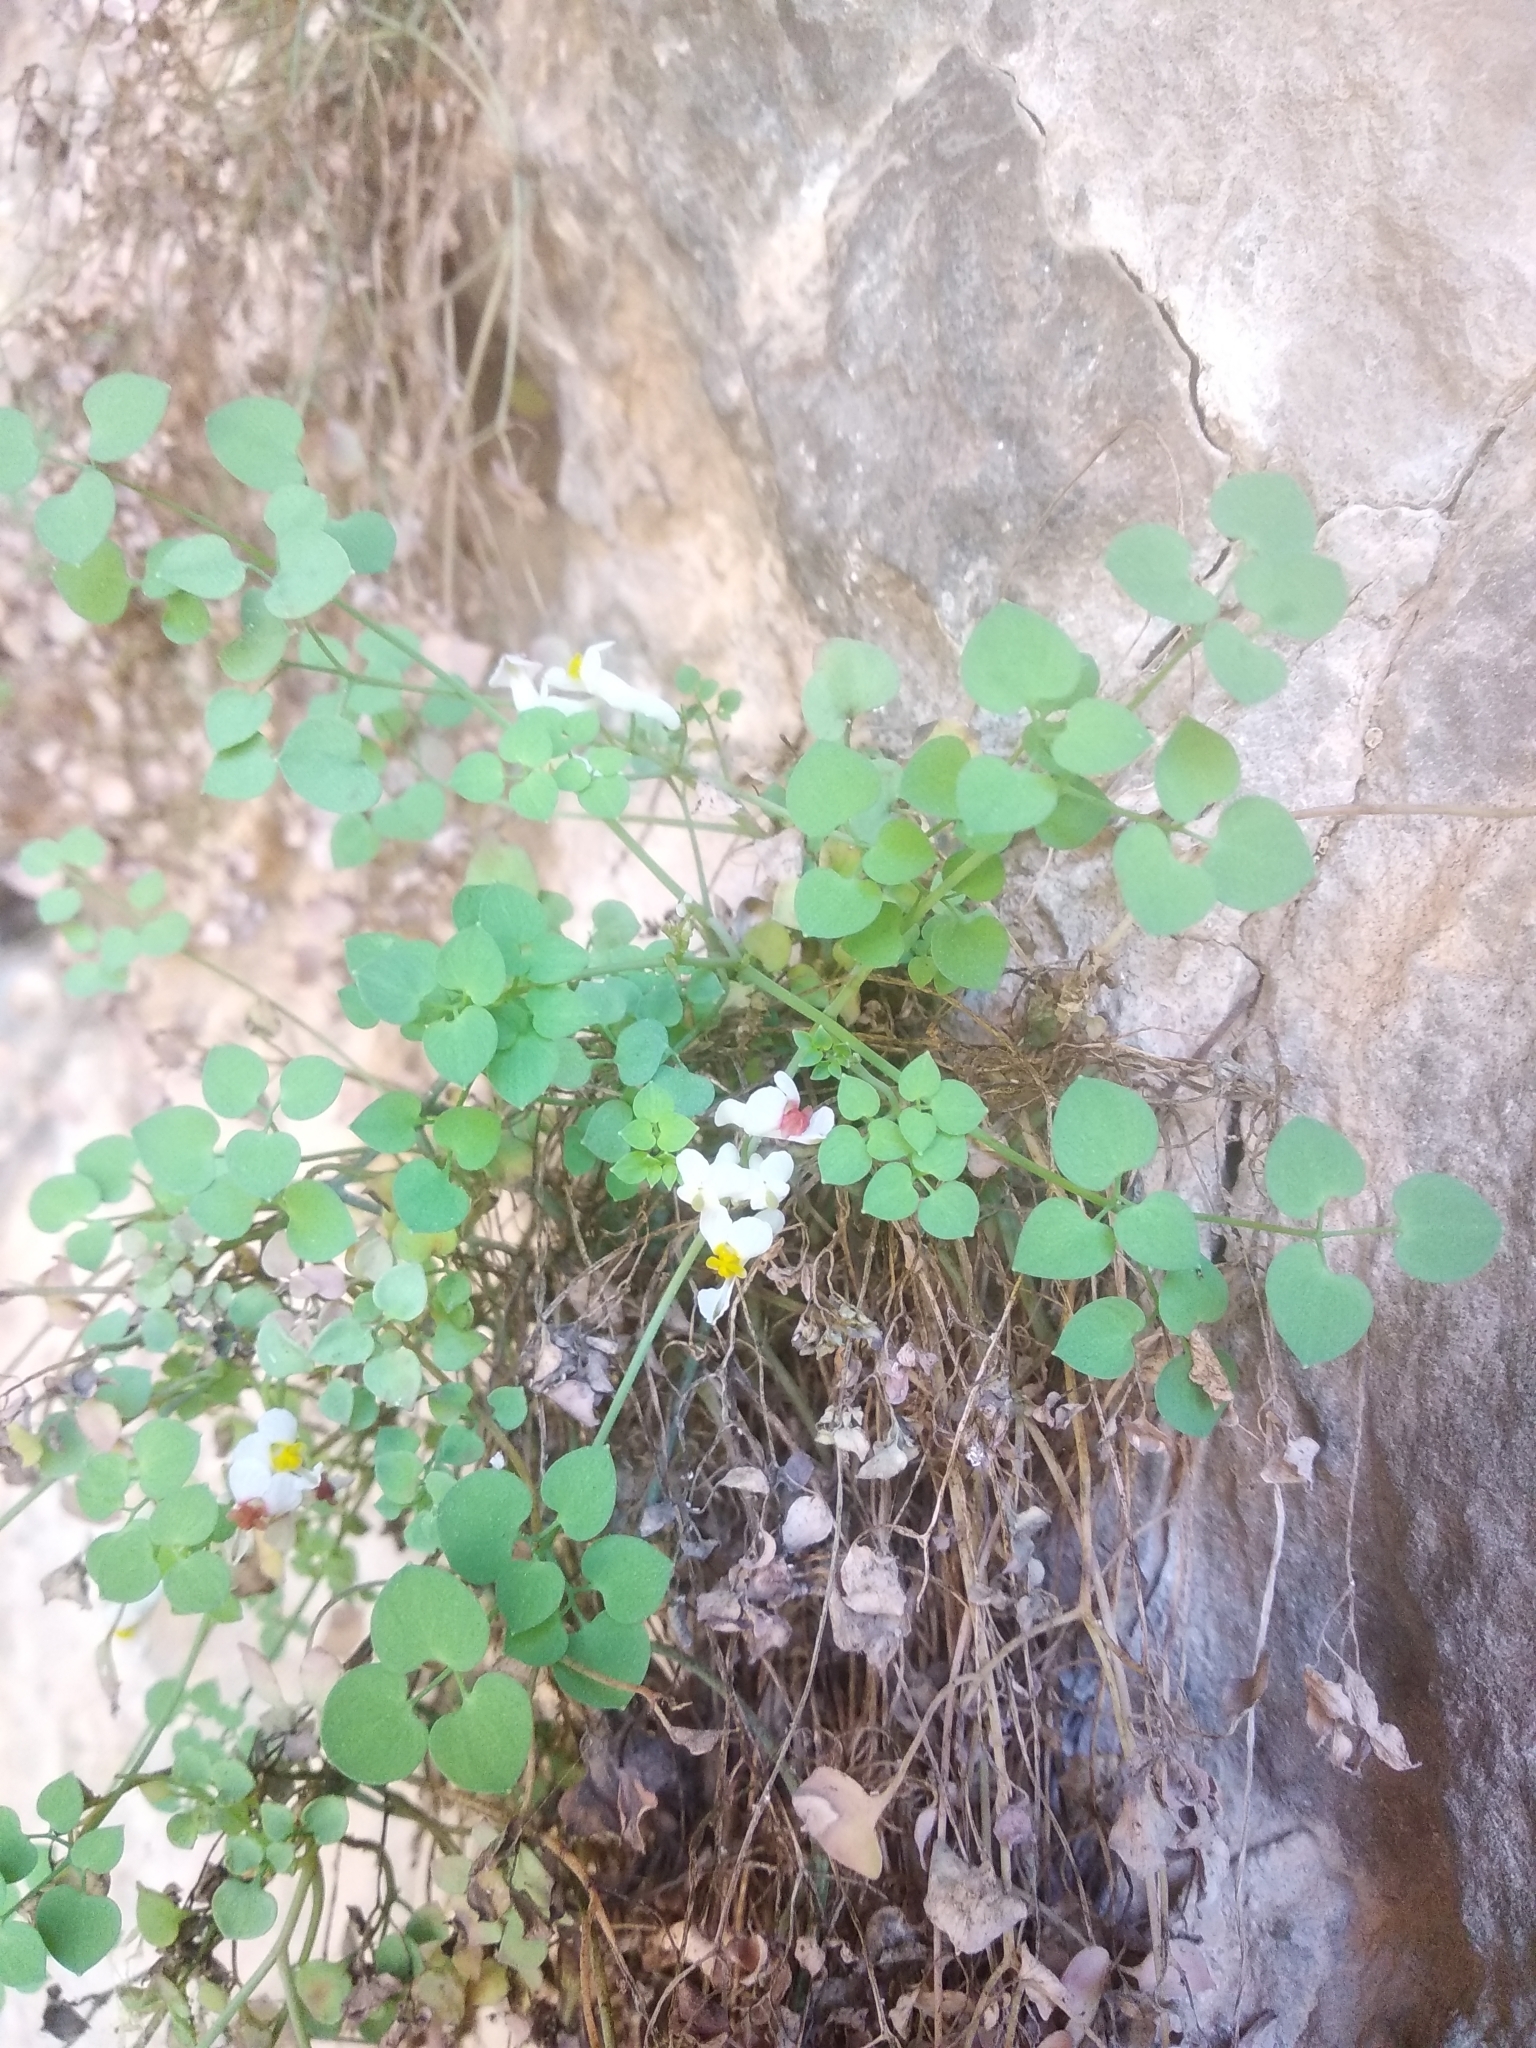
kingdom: Plantae
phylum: Tracheophyta
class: Magnoliopsida
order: Ranunculales
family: Papaveraceae
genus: Sarcocapnos
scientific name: Sarcocapnos enneaphylla
